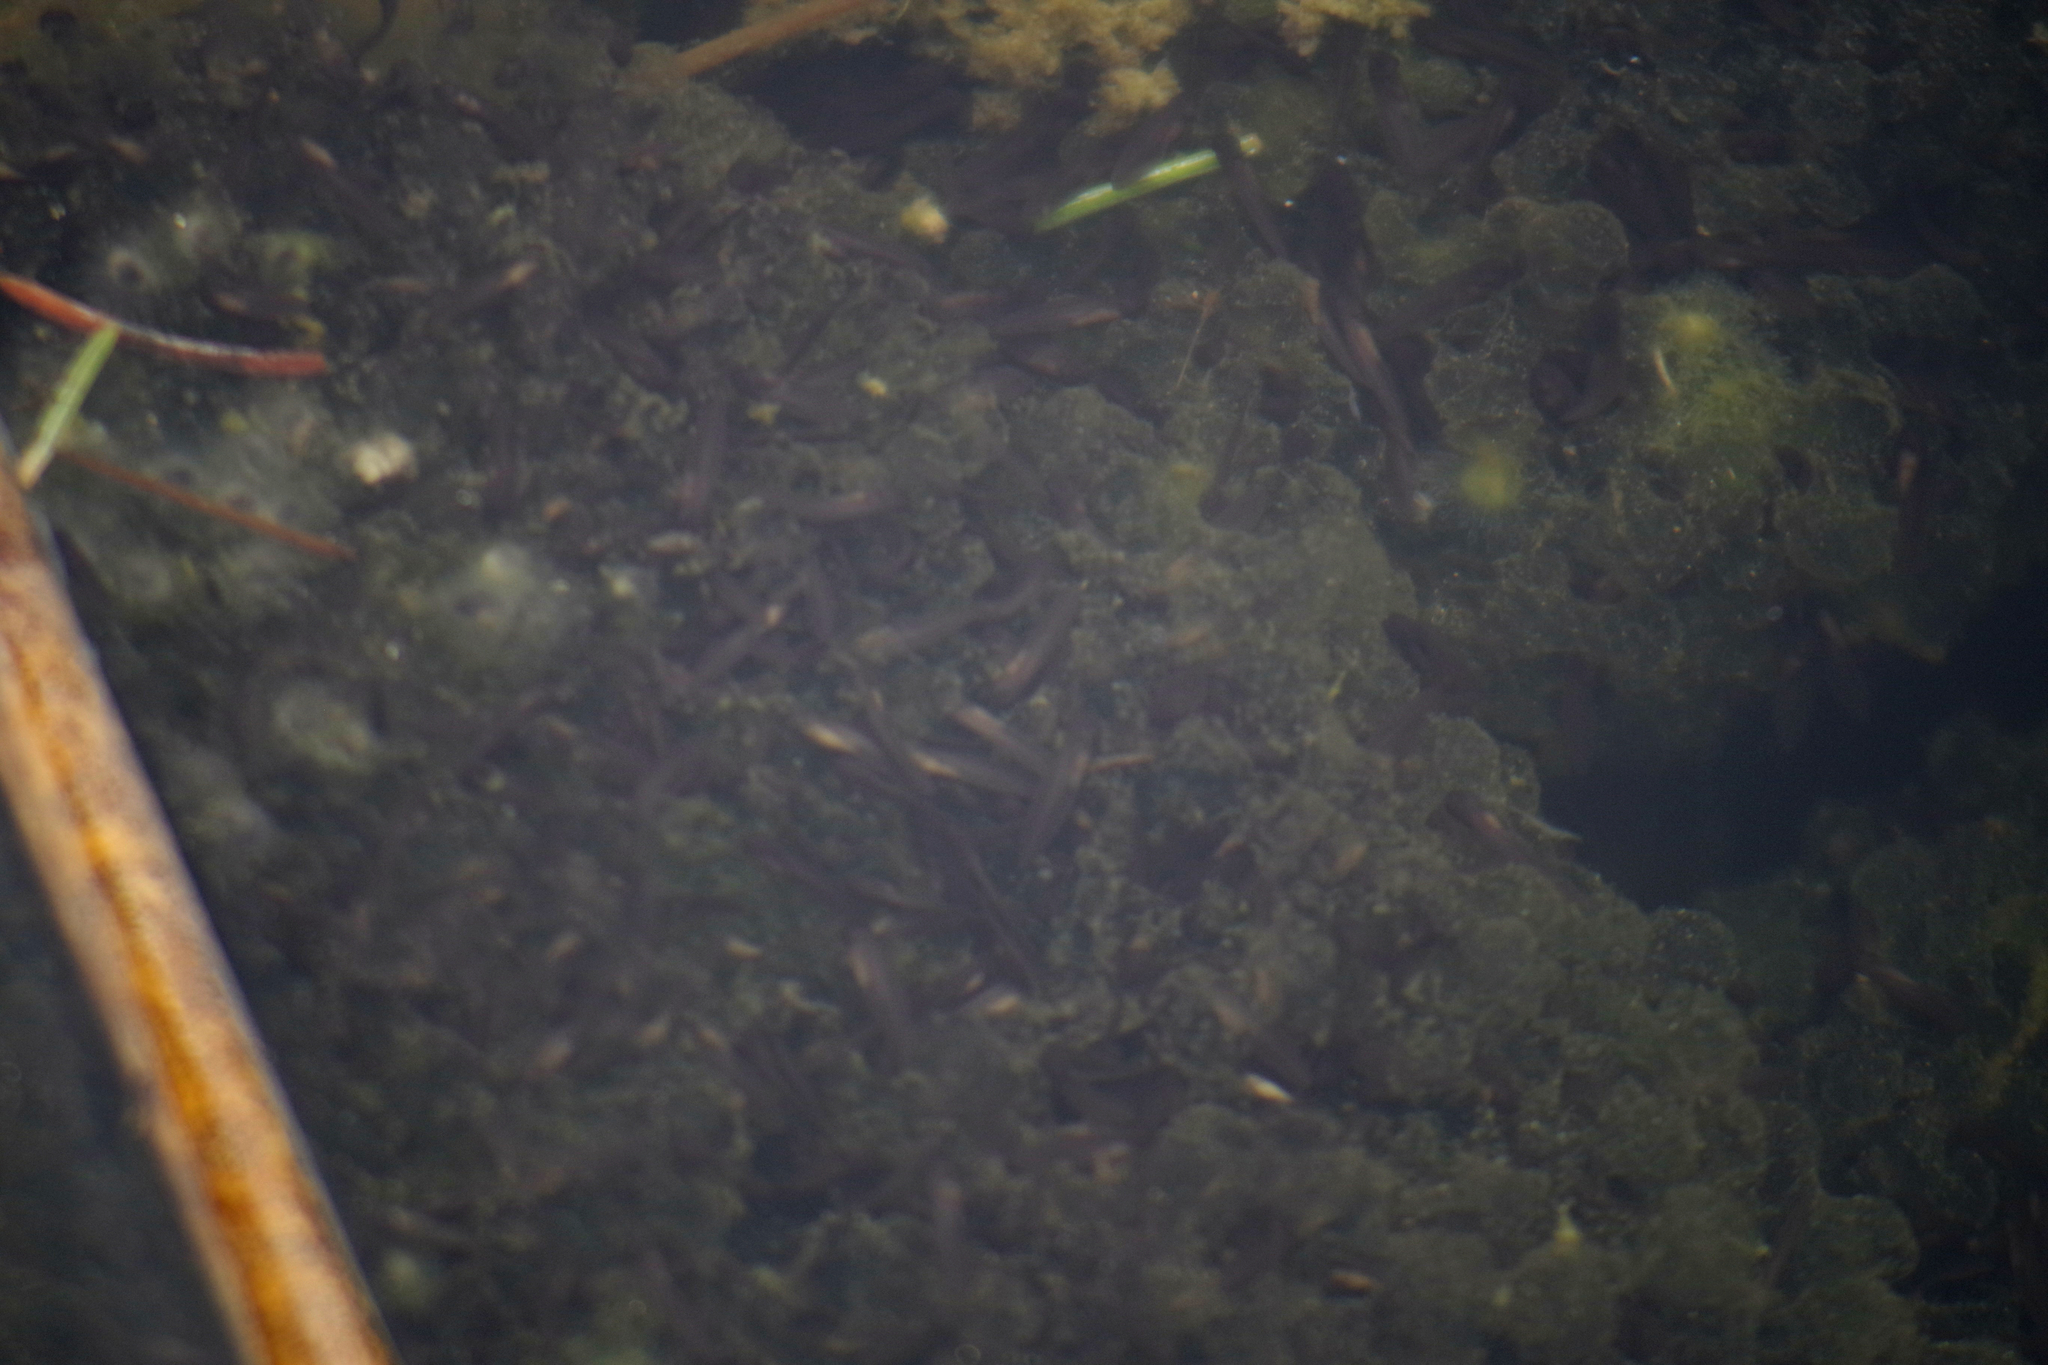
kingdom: Animalia
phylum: Chordata
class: Amphibia
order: Anura
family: Ranidae
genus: Lithobates
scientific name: Lithobates sylvaticus
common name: Wood frog
